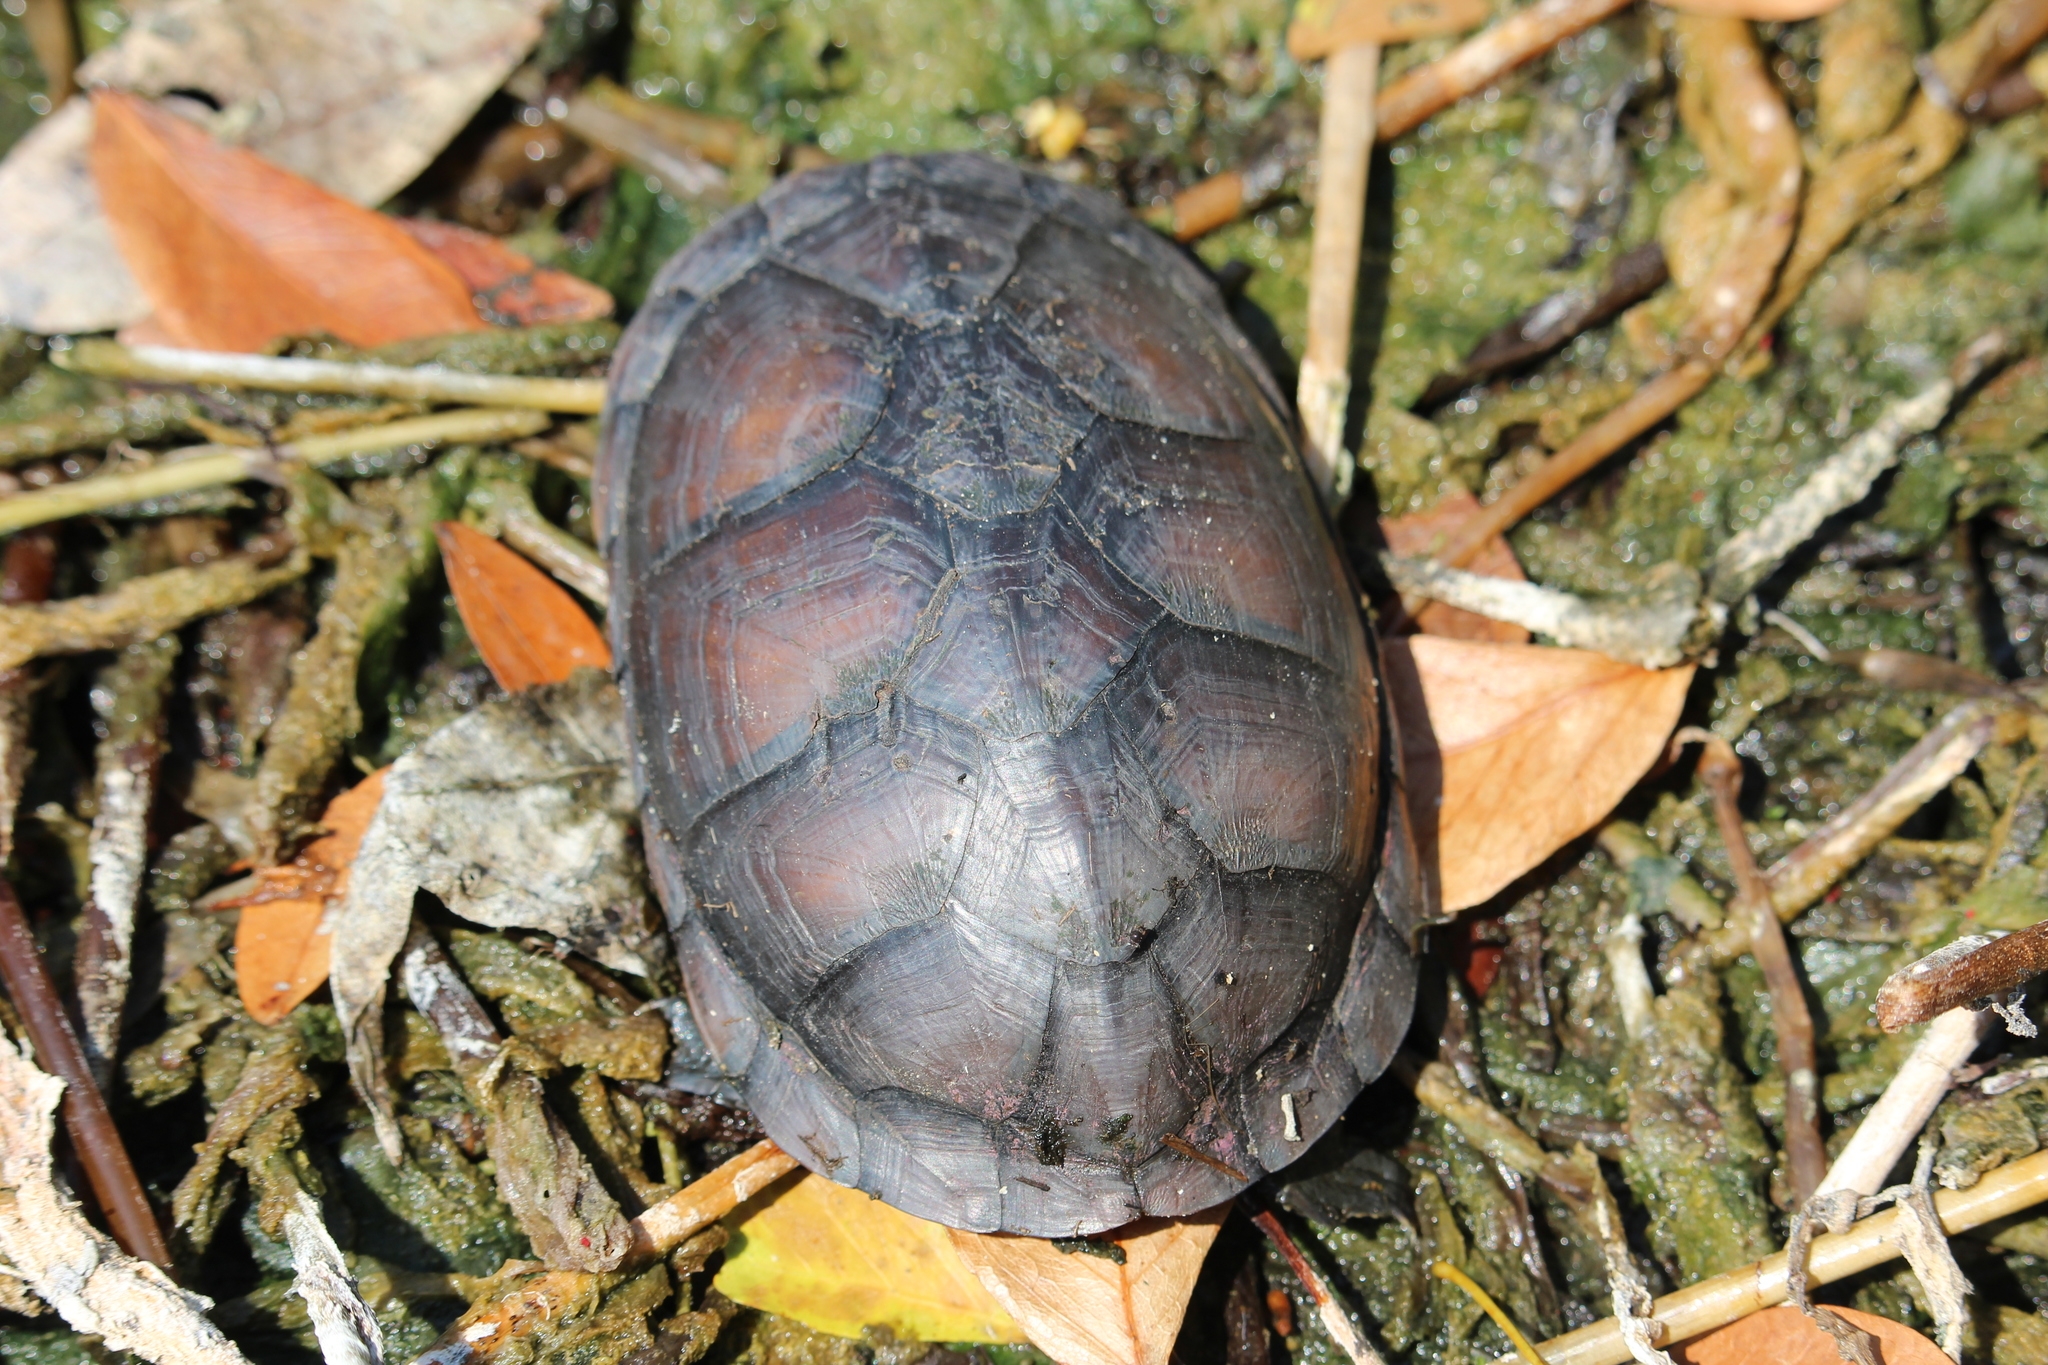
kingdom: Animalia
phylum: Chordata
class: Testudines
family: Kinosternidae
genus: Kinosternon
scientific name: Kinosternon leucostomum
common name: White-lipped mud turtle
